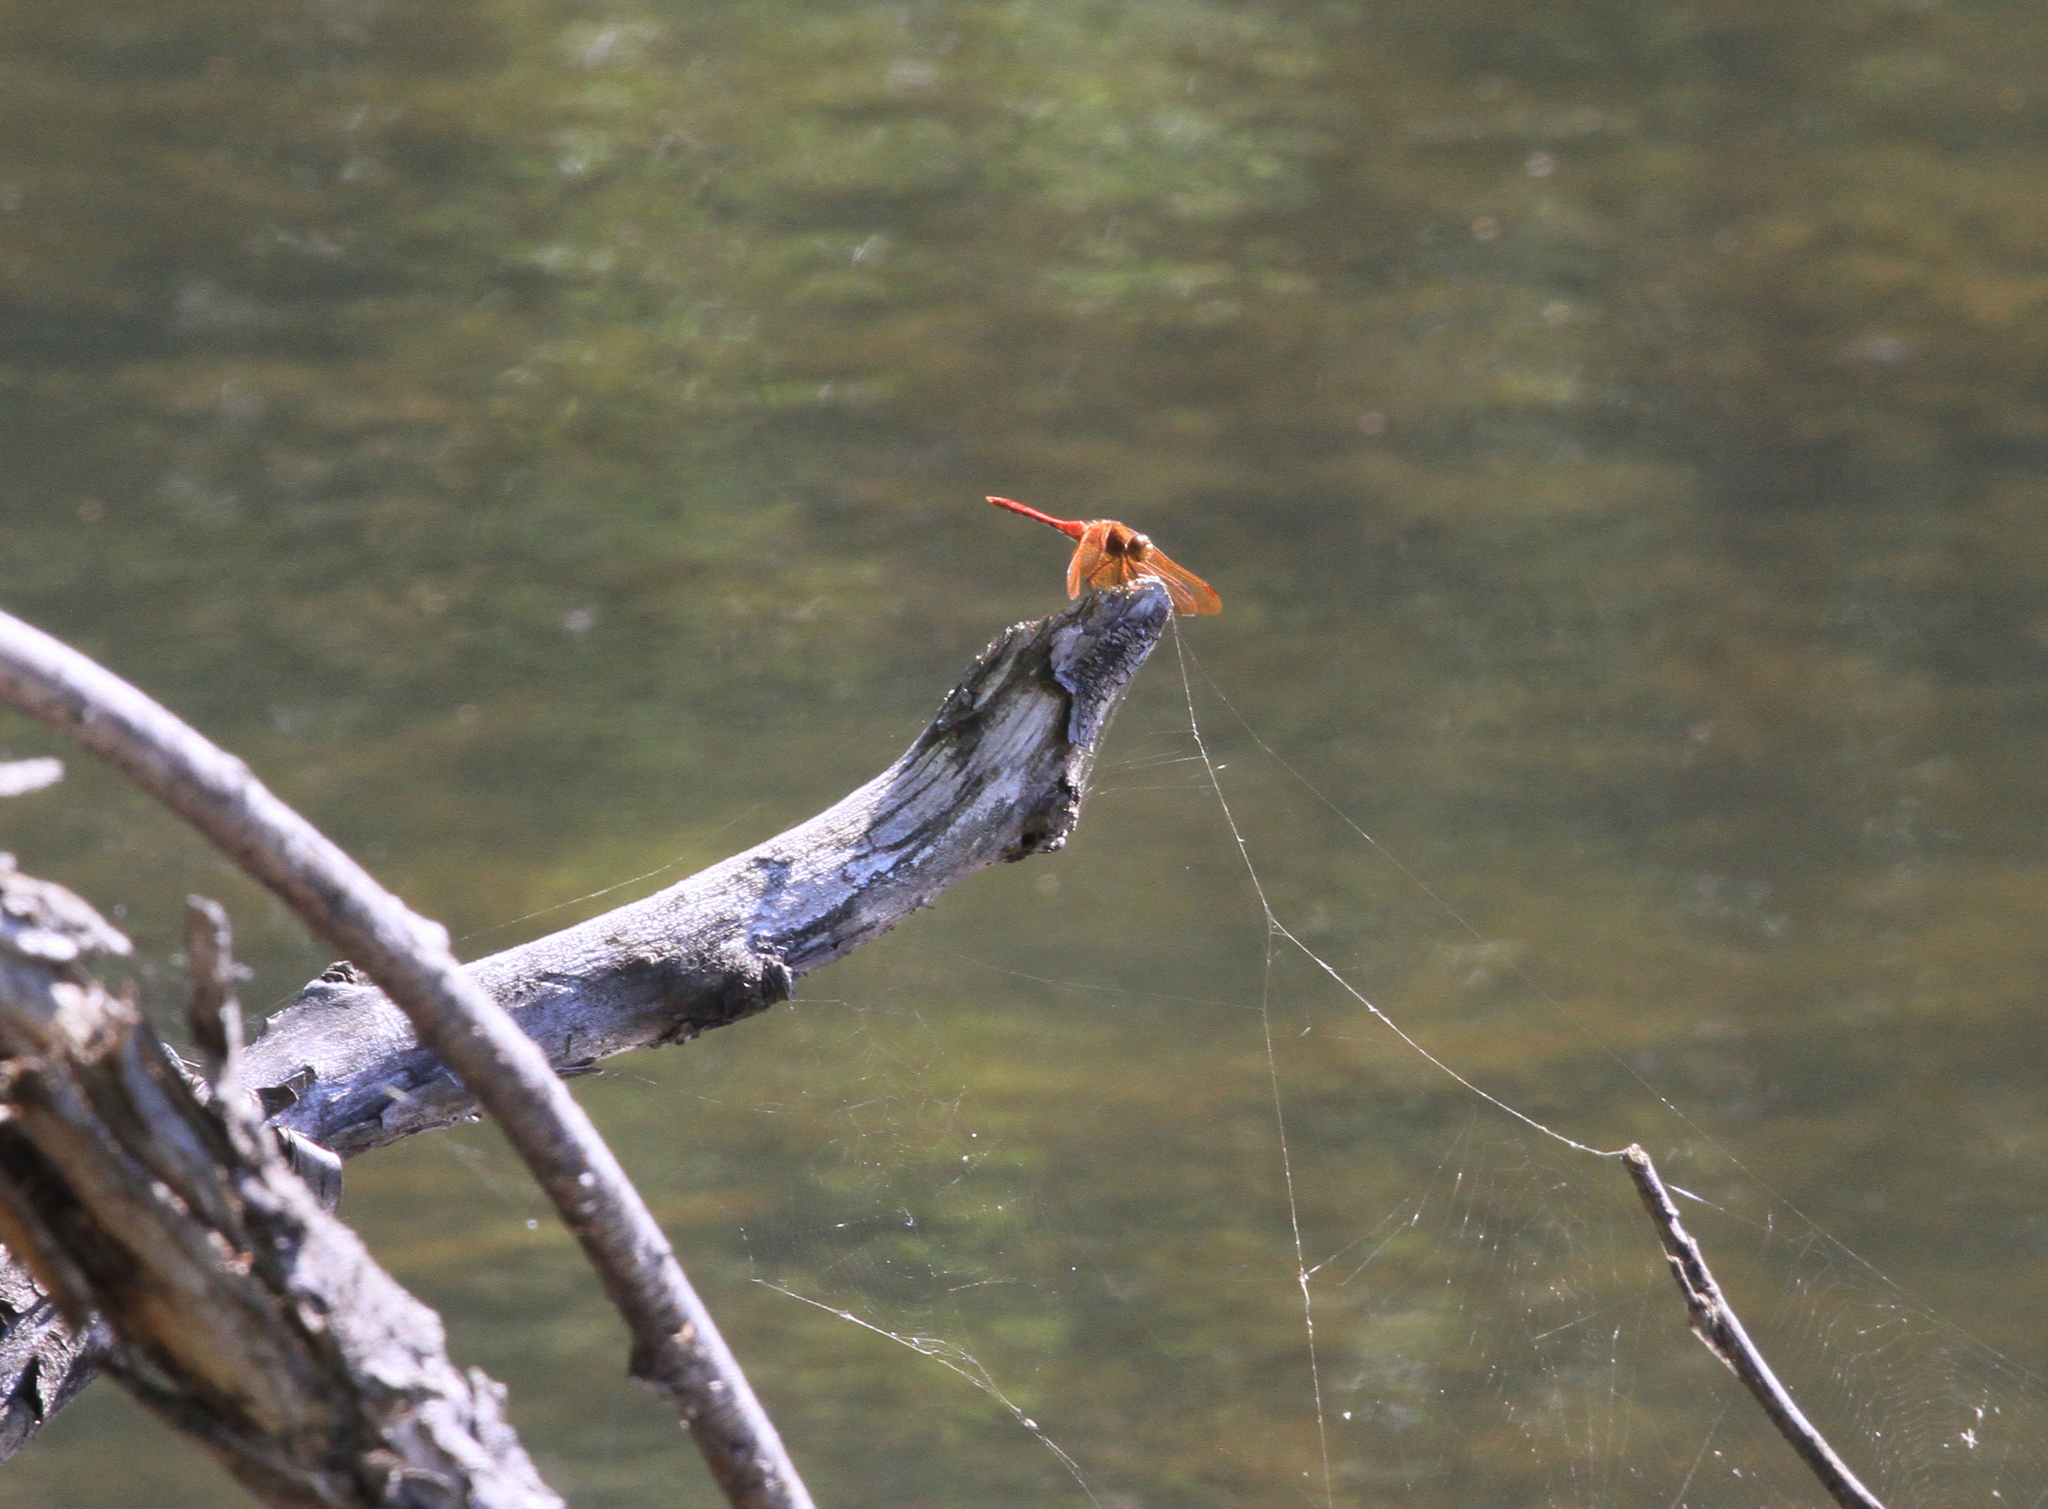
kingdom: Animalia
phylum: Arthropoda
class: Insecta
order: Odonata
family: Libellulidae
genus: Sympetrum
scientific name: Sympetrum croceolum
